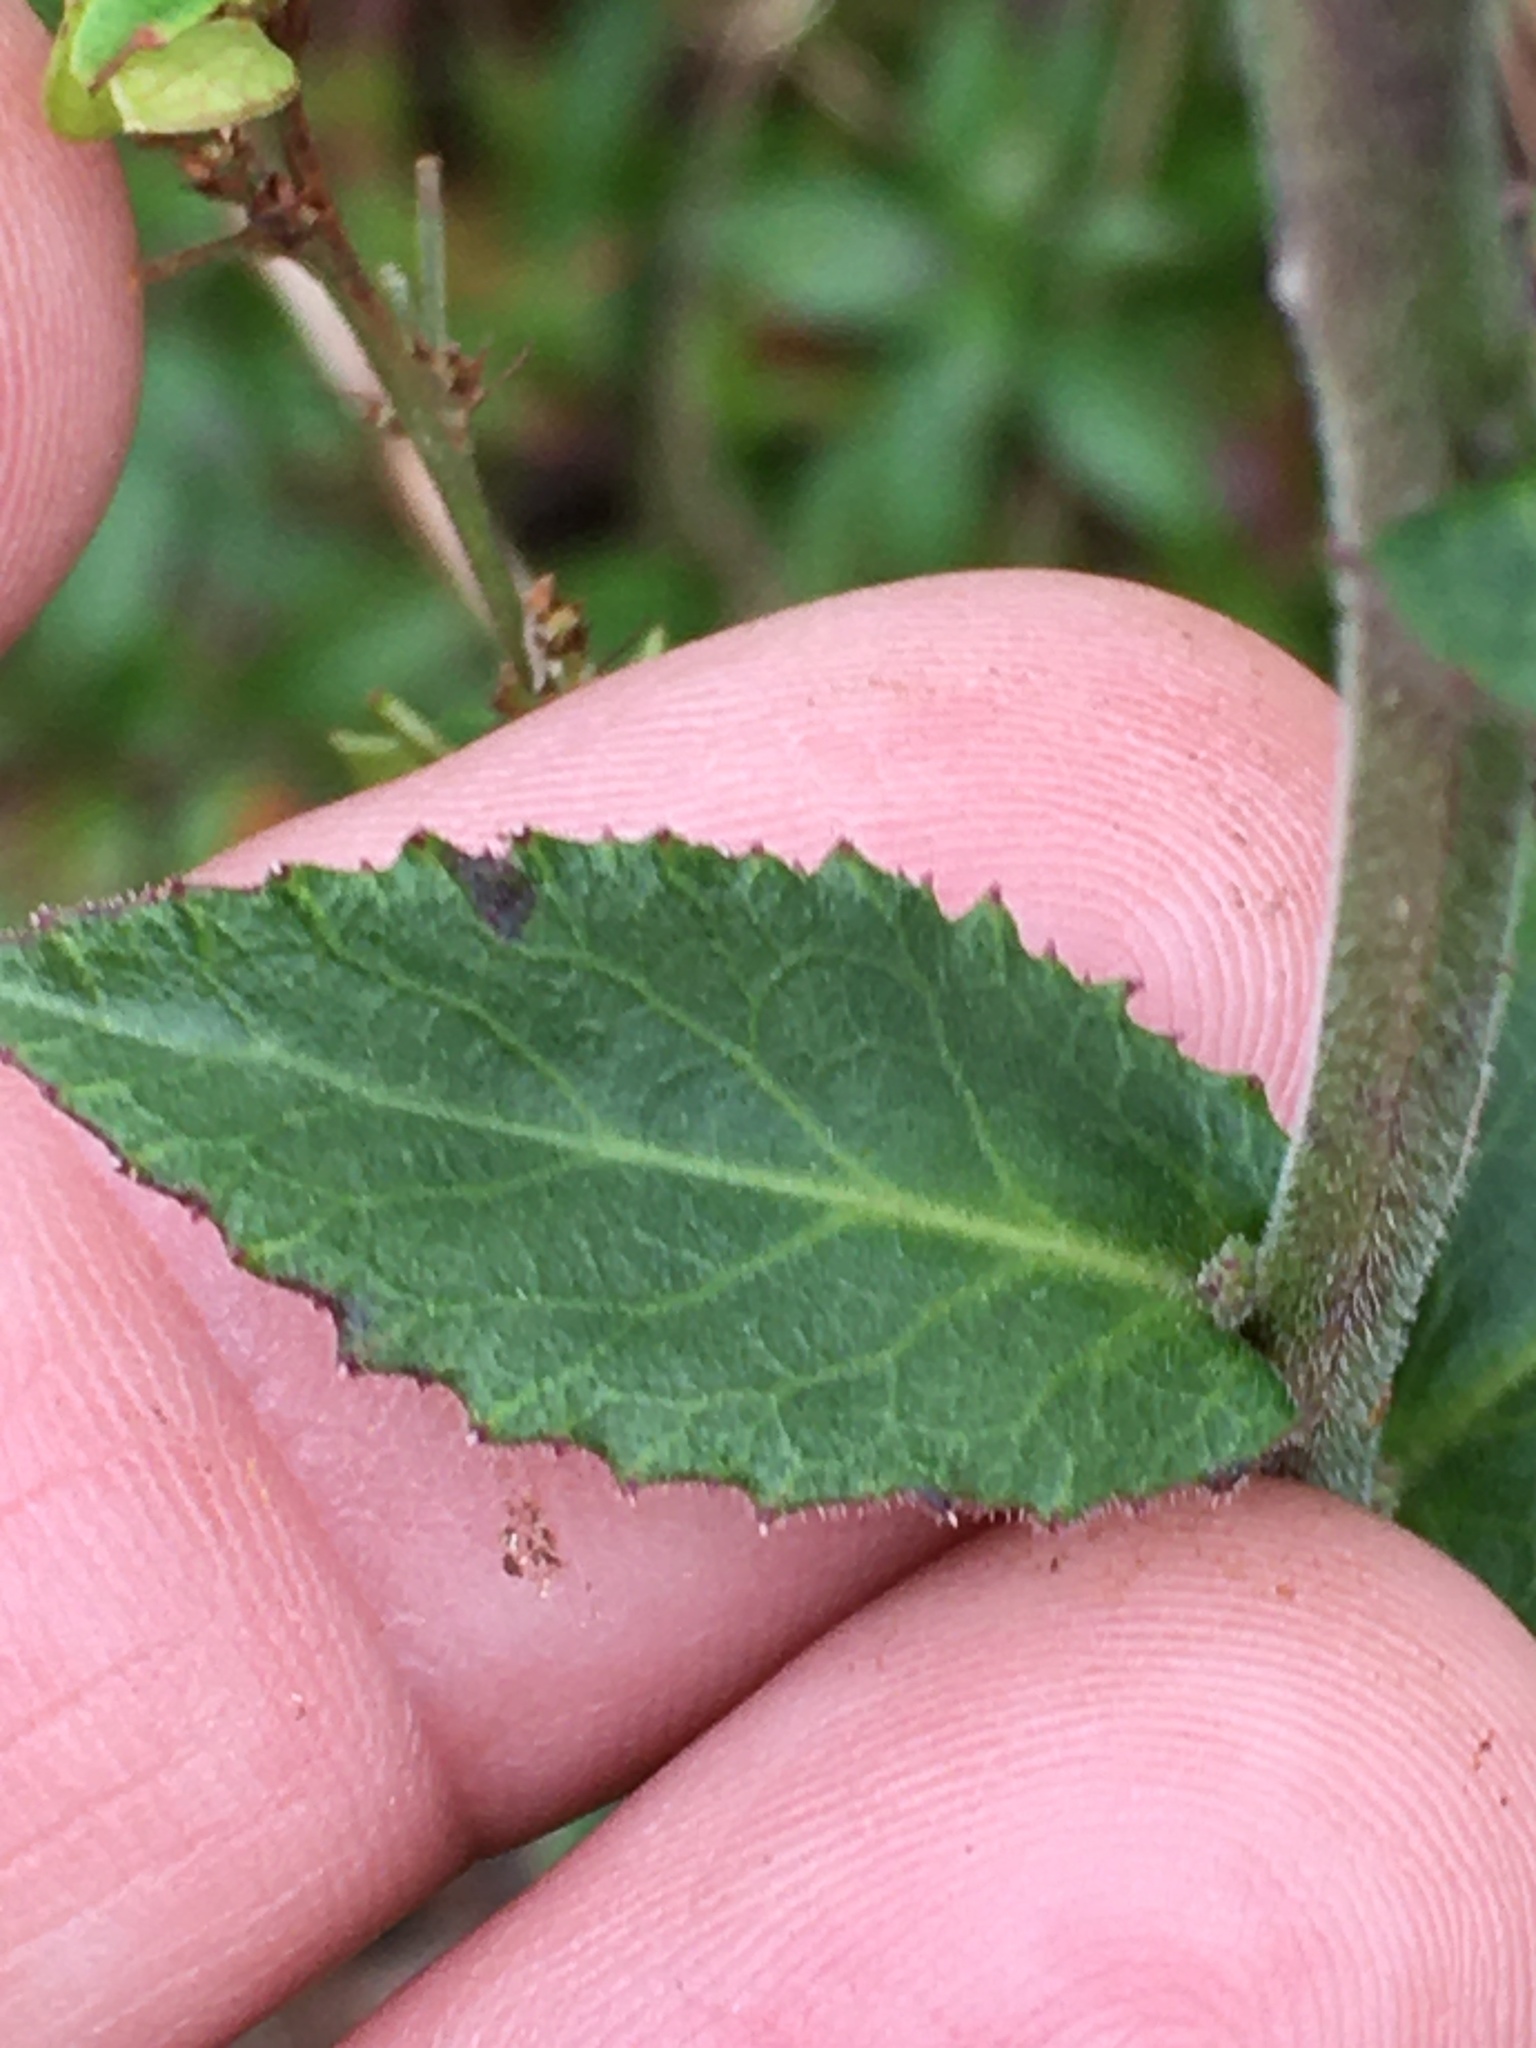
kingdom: Plantae
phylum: Tracheophyta
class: Magnoliopsida
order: Asterales
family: Campanulaceae
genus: Lobelia
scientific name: Lobelia puberula
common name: Purple dewdrop
